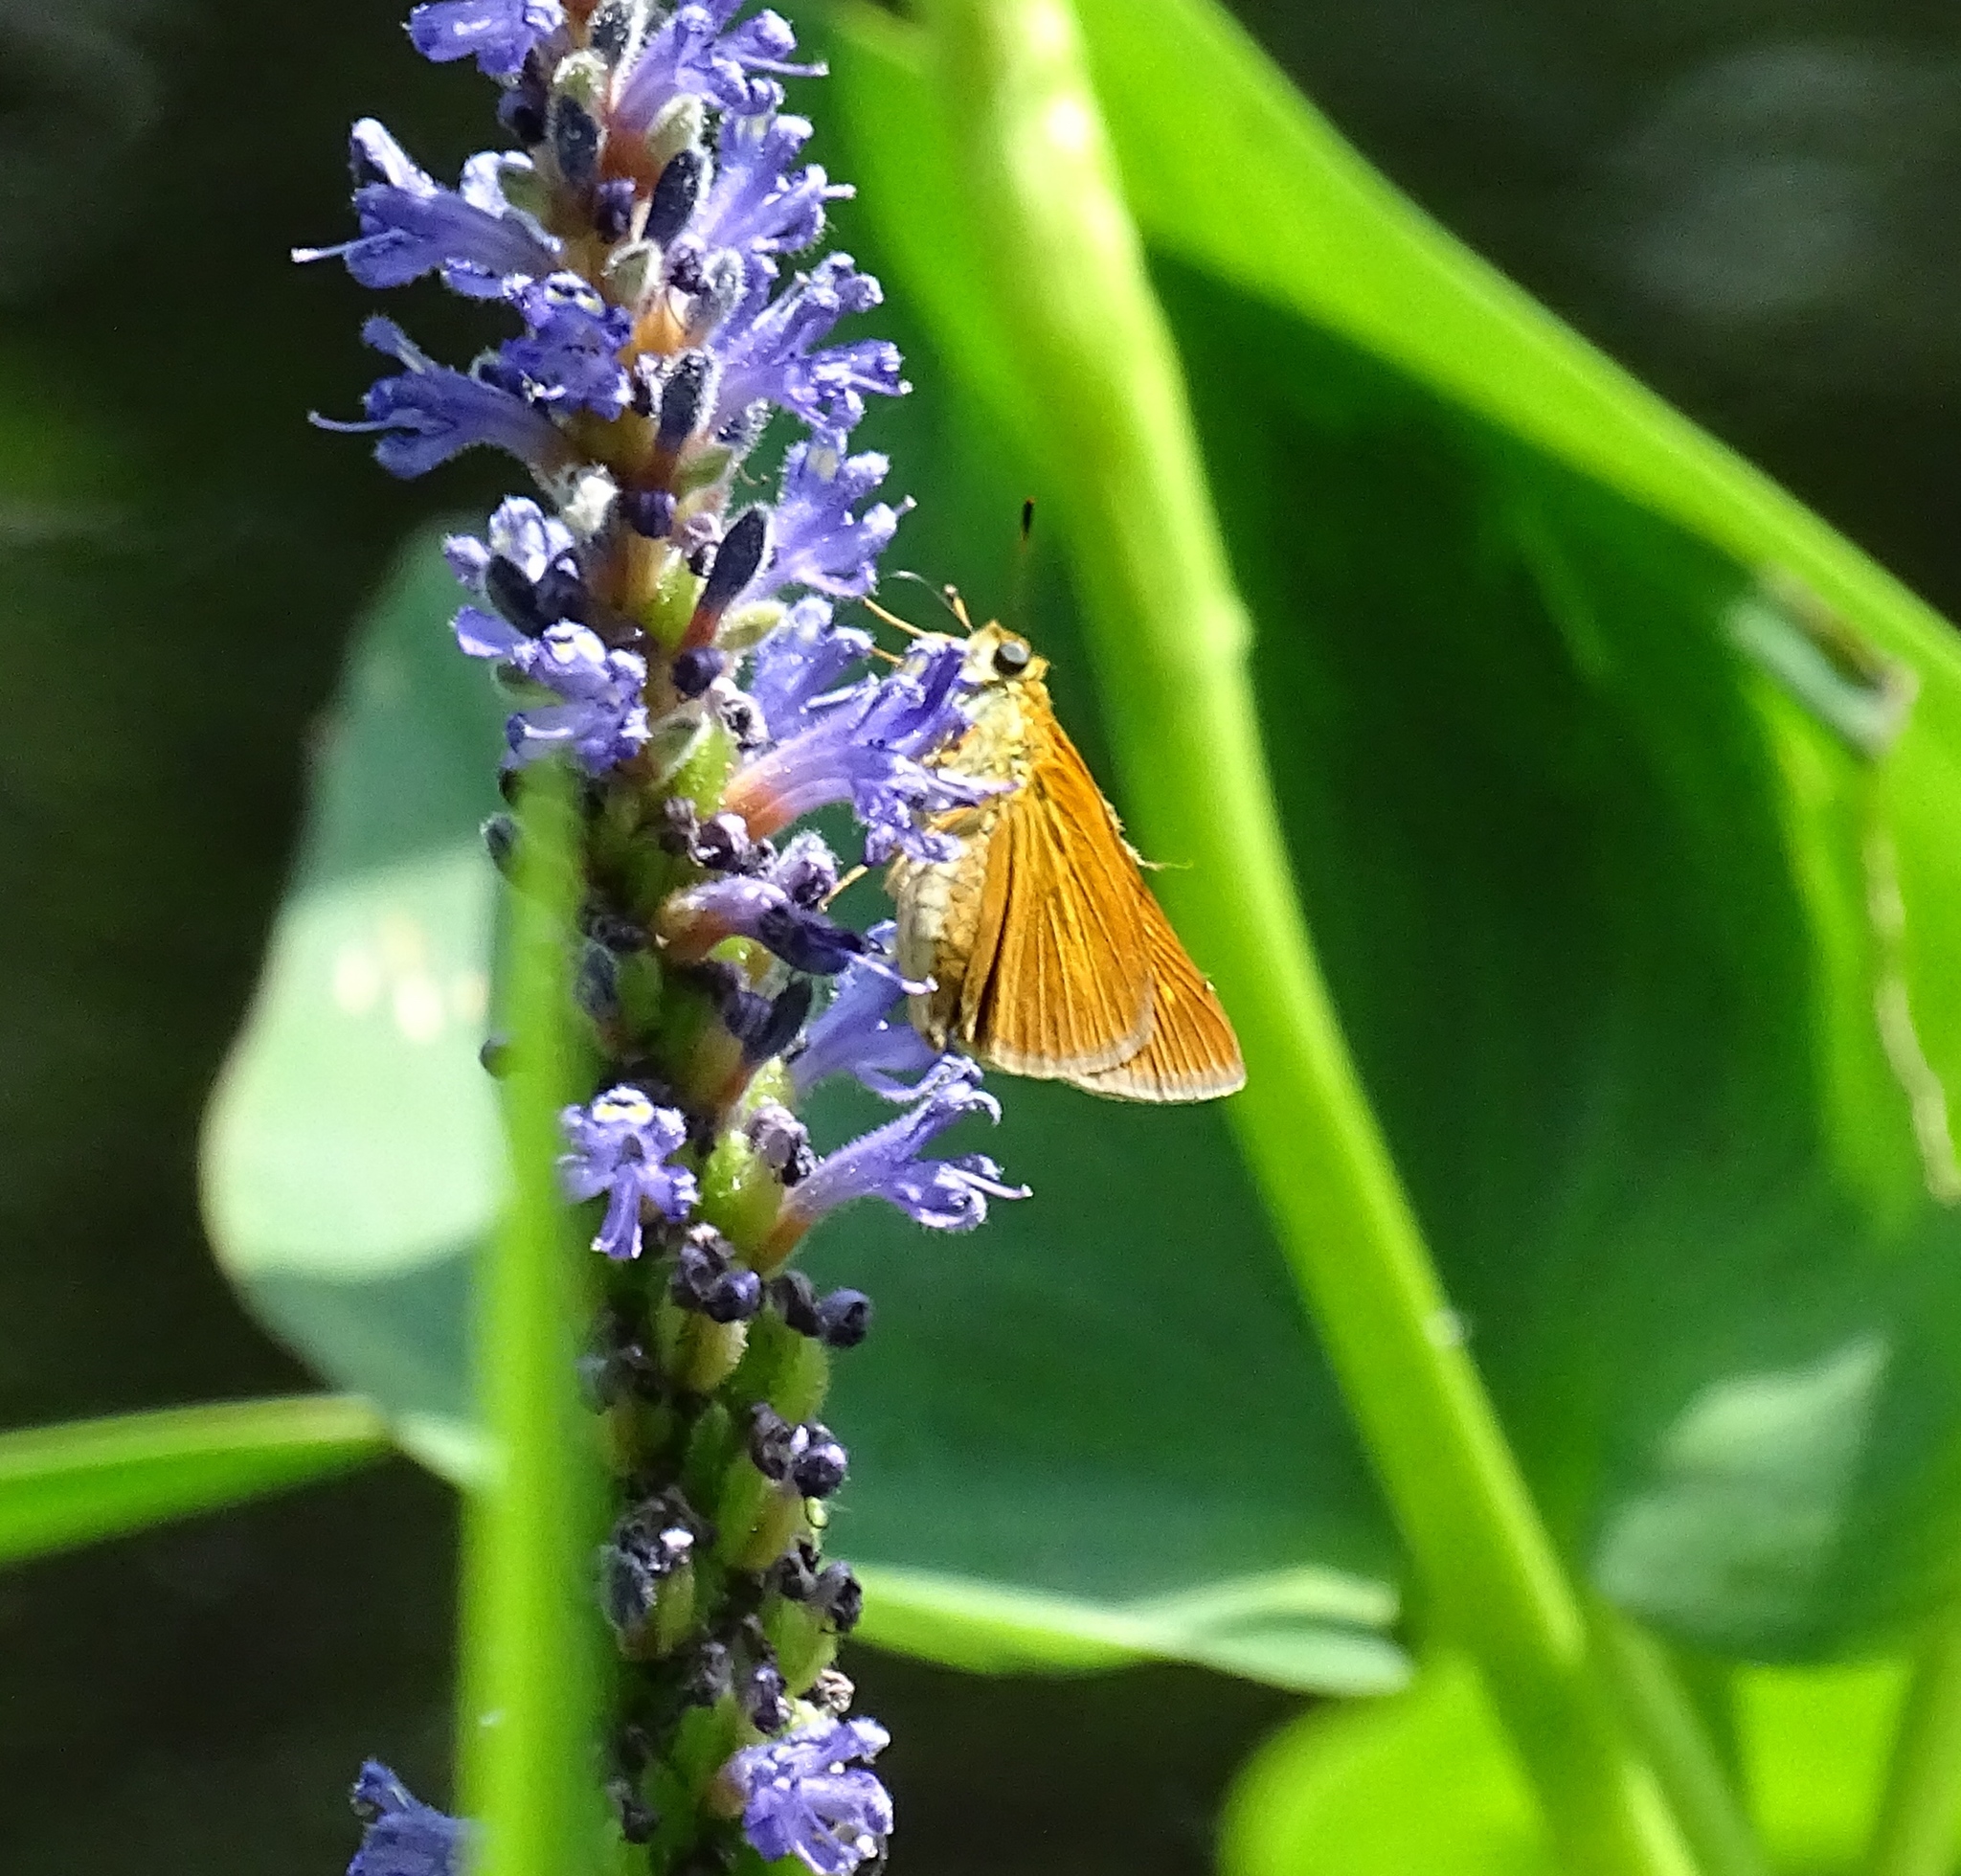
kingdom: Animalia
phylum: Arthropoda
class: Insecta
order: Lepidoptera
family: Hesperiidae
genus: Euphyes
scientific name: Euphyes dion
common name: Dion skipper
